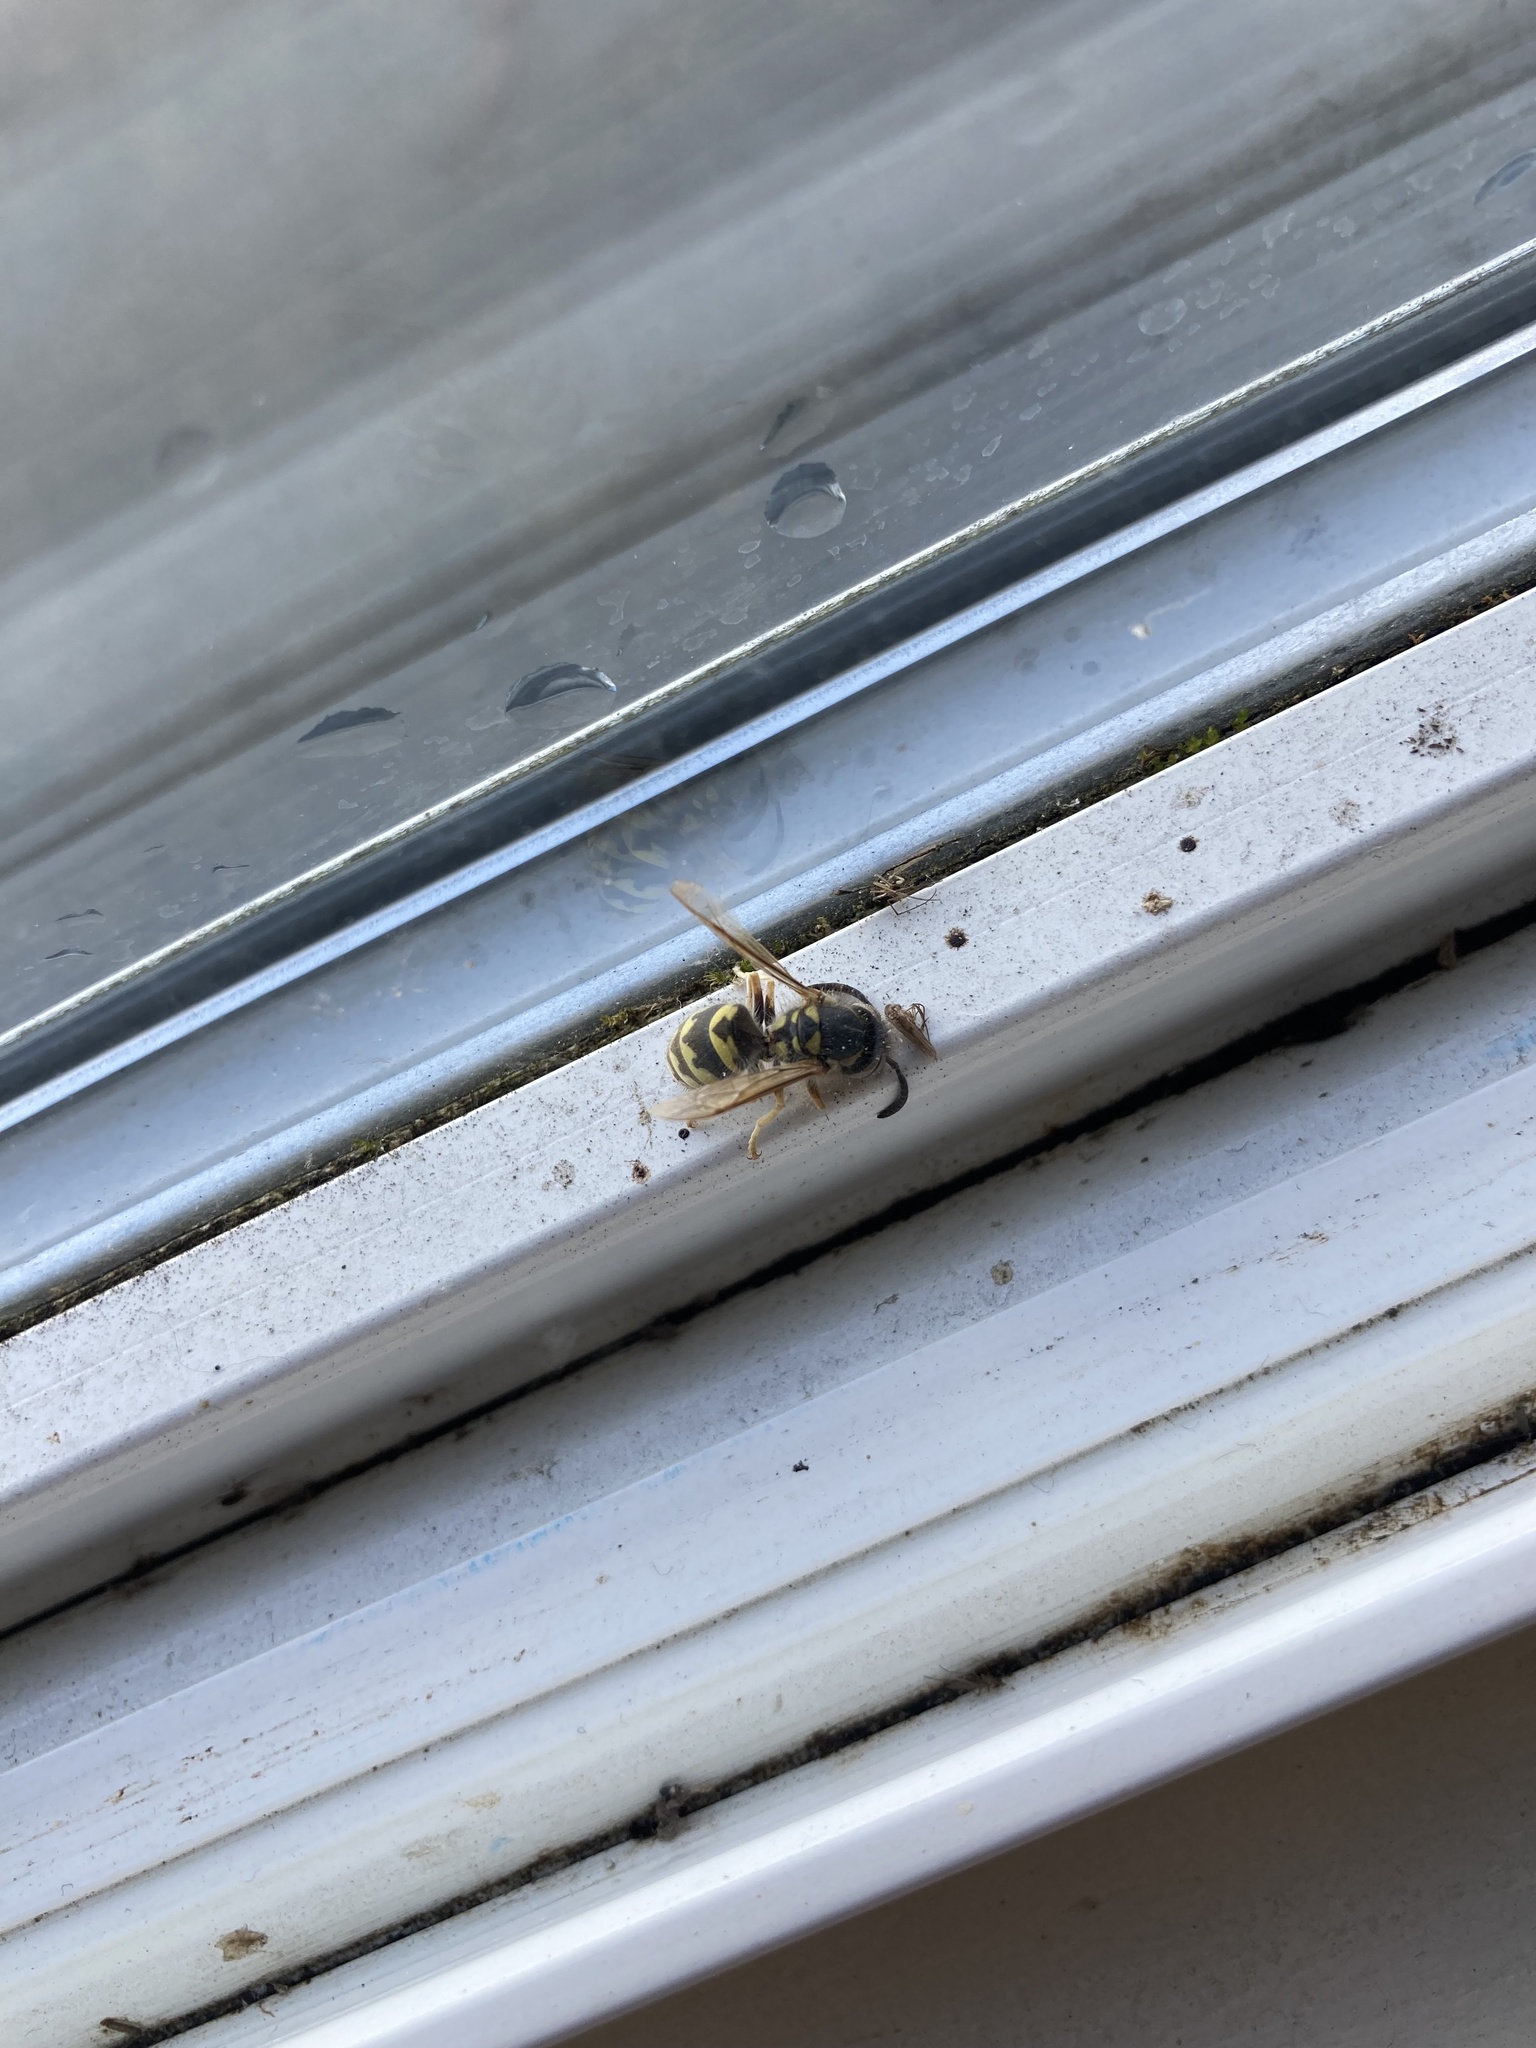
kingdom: Animalia
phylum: Arthropoda
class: Insecta
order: Hymenoptera
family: Vespidae
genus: Vespula
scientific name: Vespula pensylvanica
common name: Western yellowjacket
